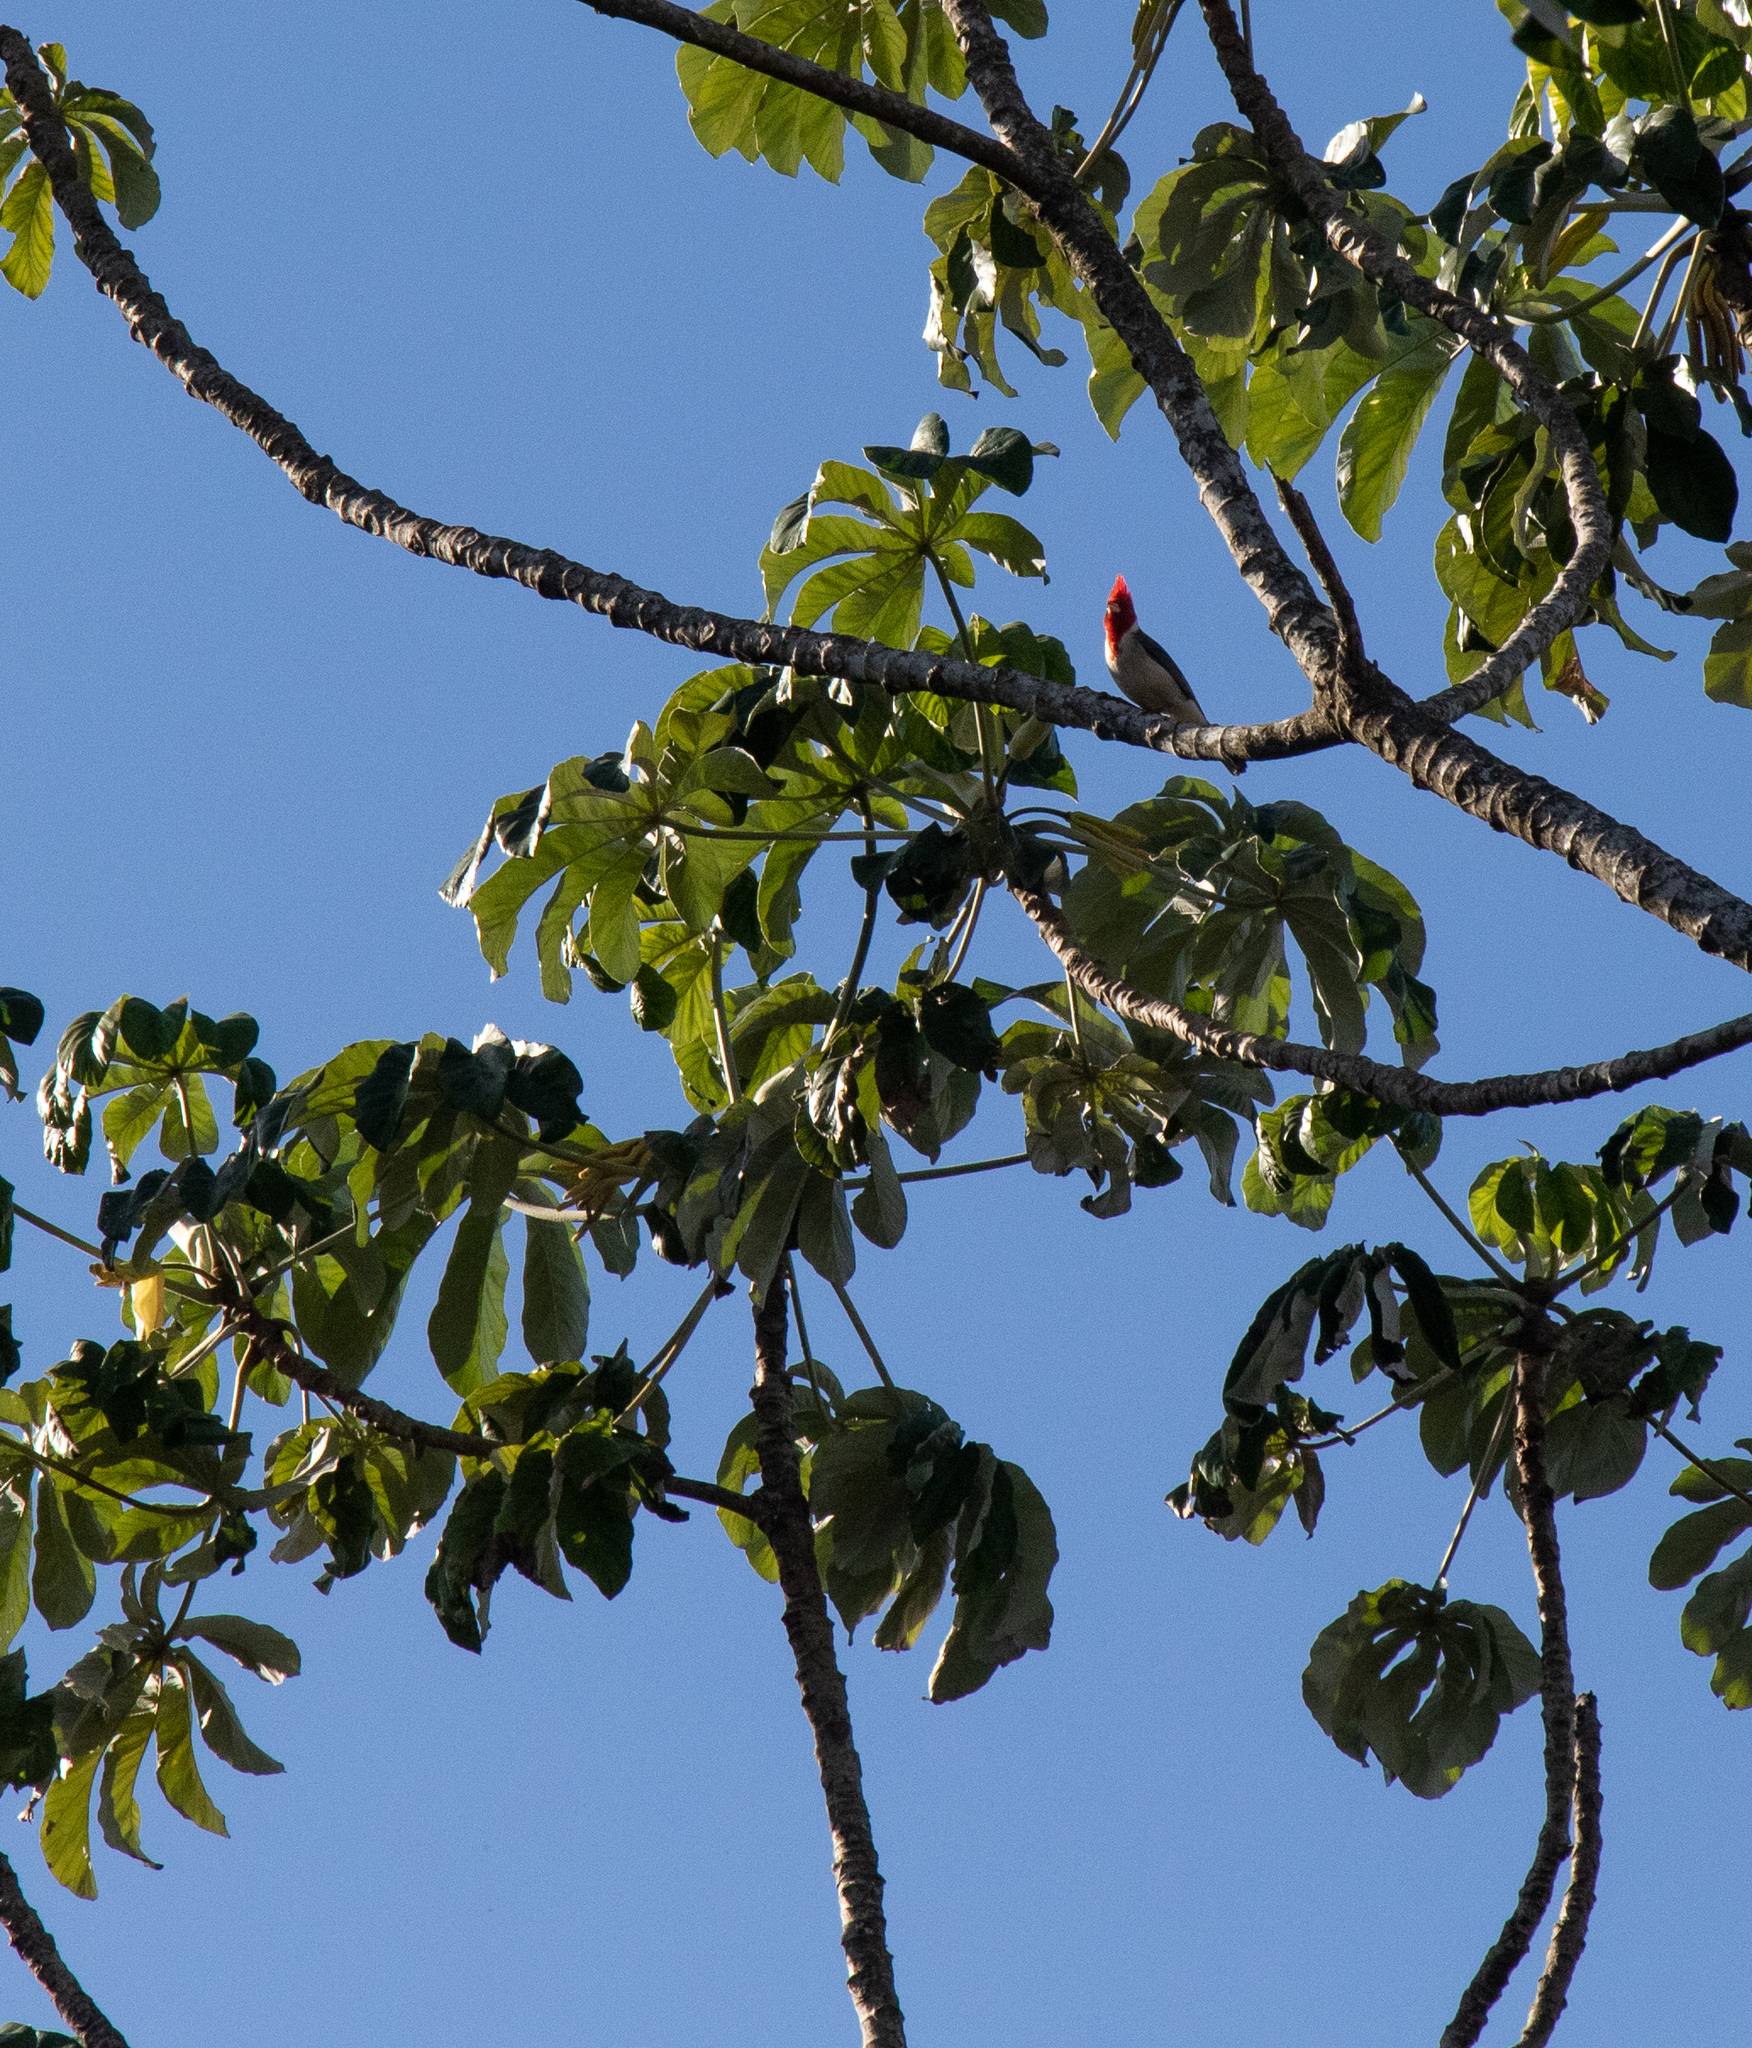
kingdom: Animalia
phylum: Chordata
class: Aves
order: Passeriformes
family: Thraupidae
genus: Paroaria
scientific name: Paroaria coronata
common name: Red-crested cardinal
